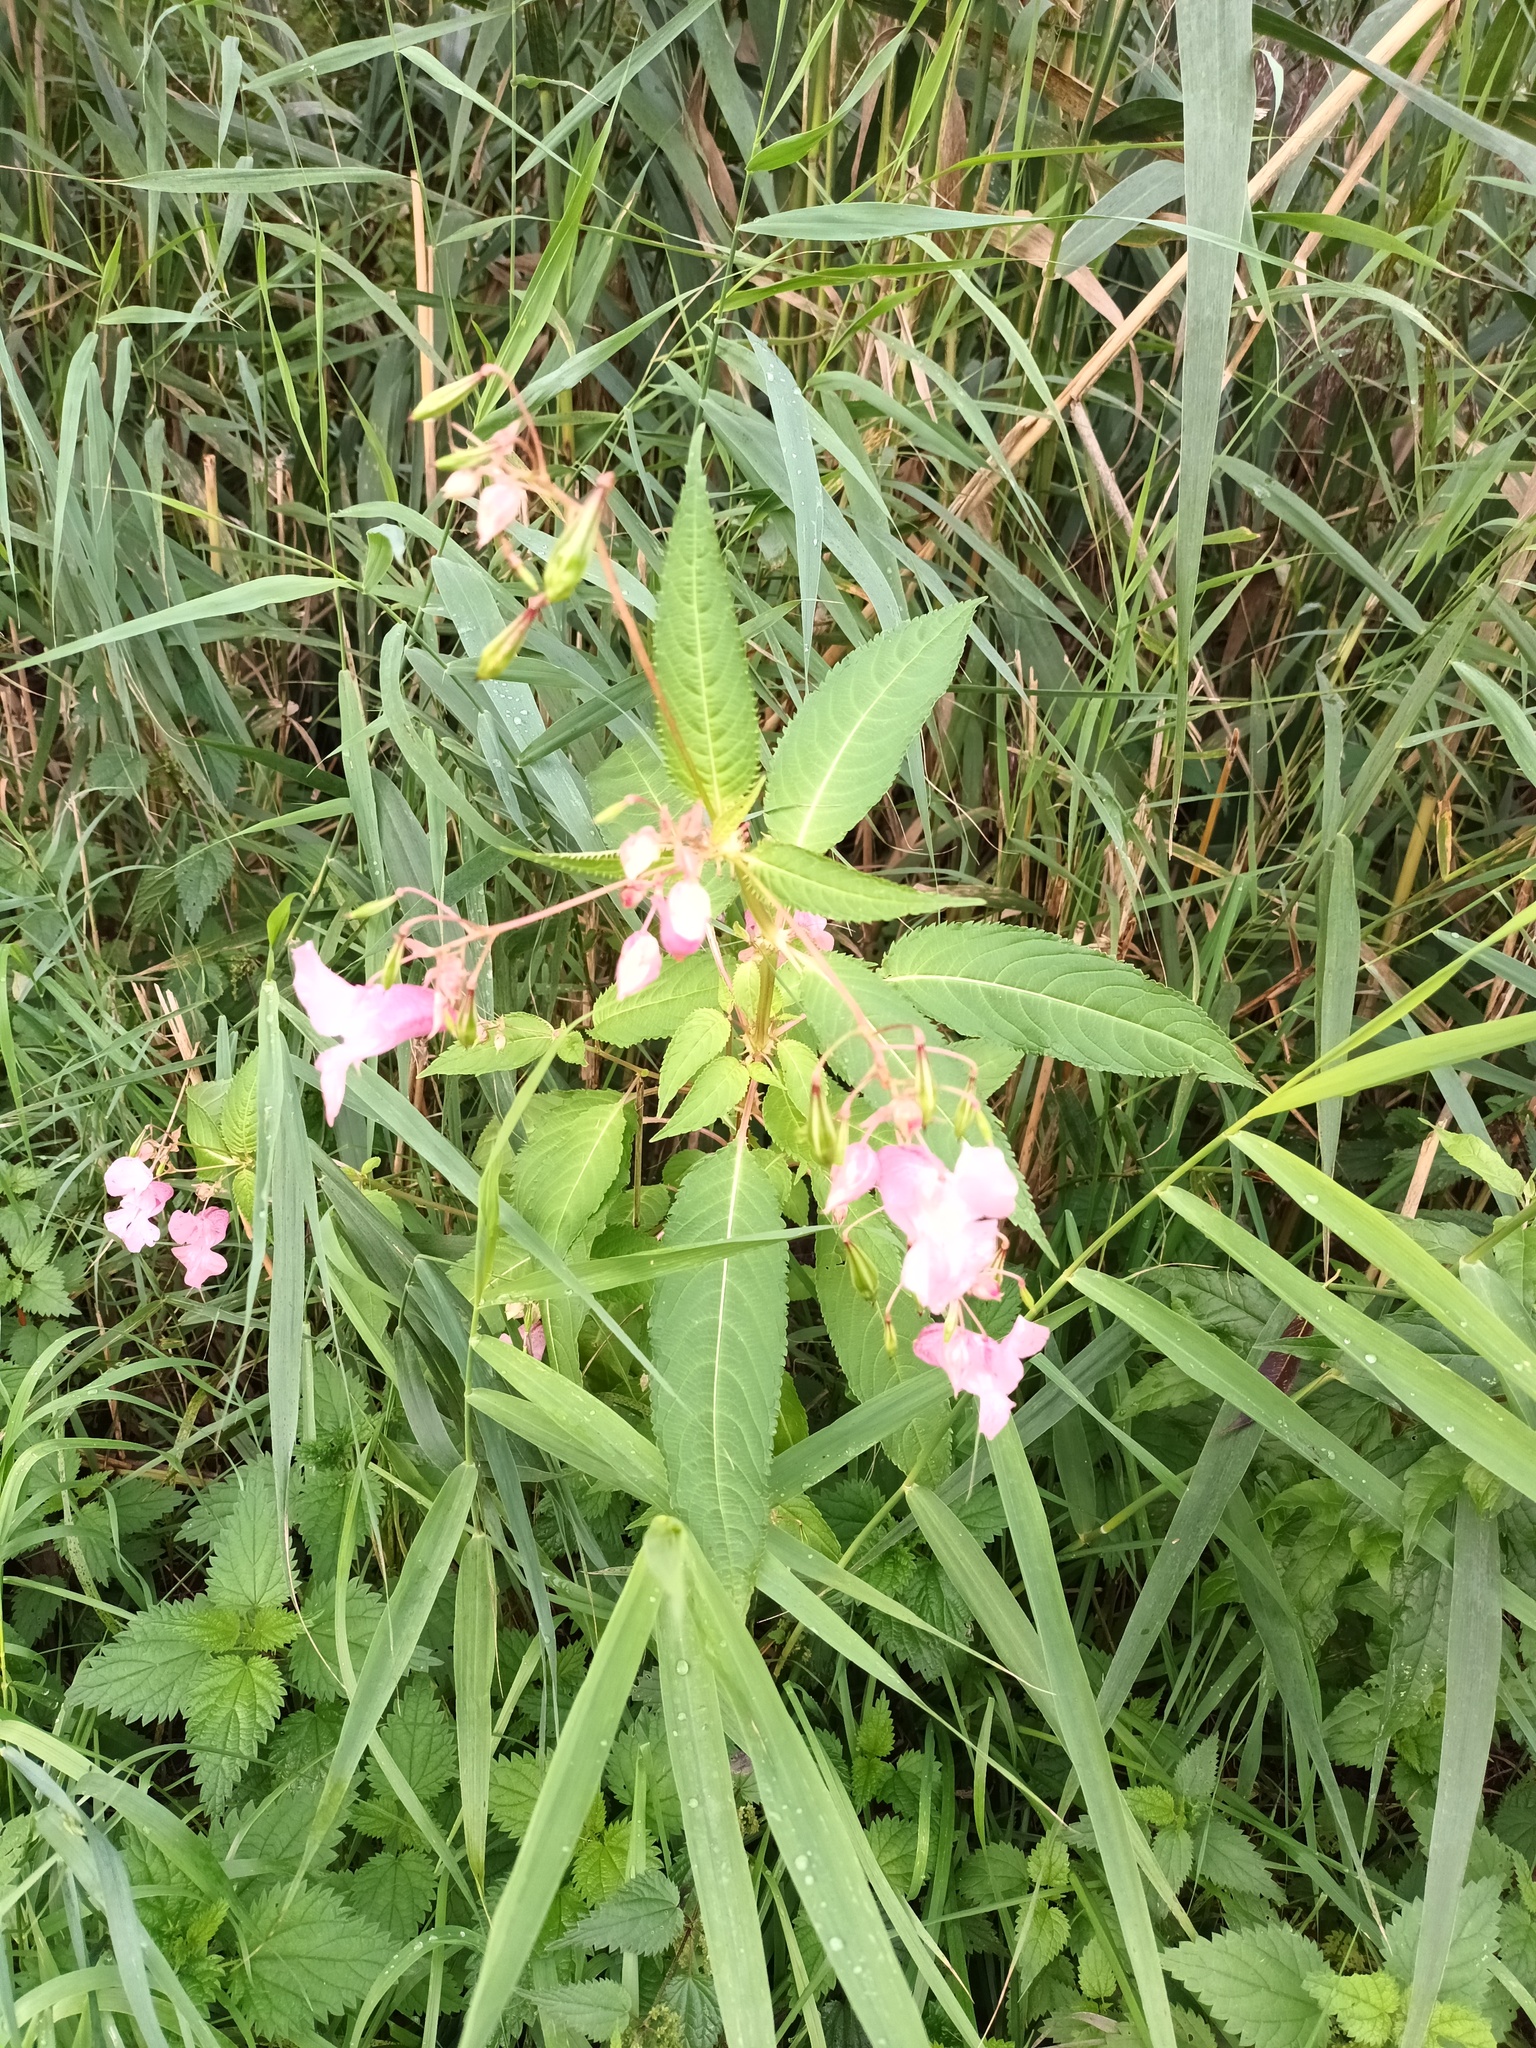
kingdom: Plantae
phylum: Tracheophyta
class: Magnoliopsida
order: Ericales
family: Balsaminaceae
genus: Impatiens
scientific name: Impatiens glandulifera
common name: Himalayan balsam
